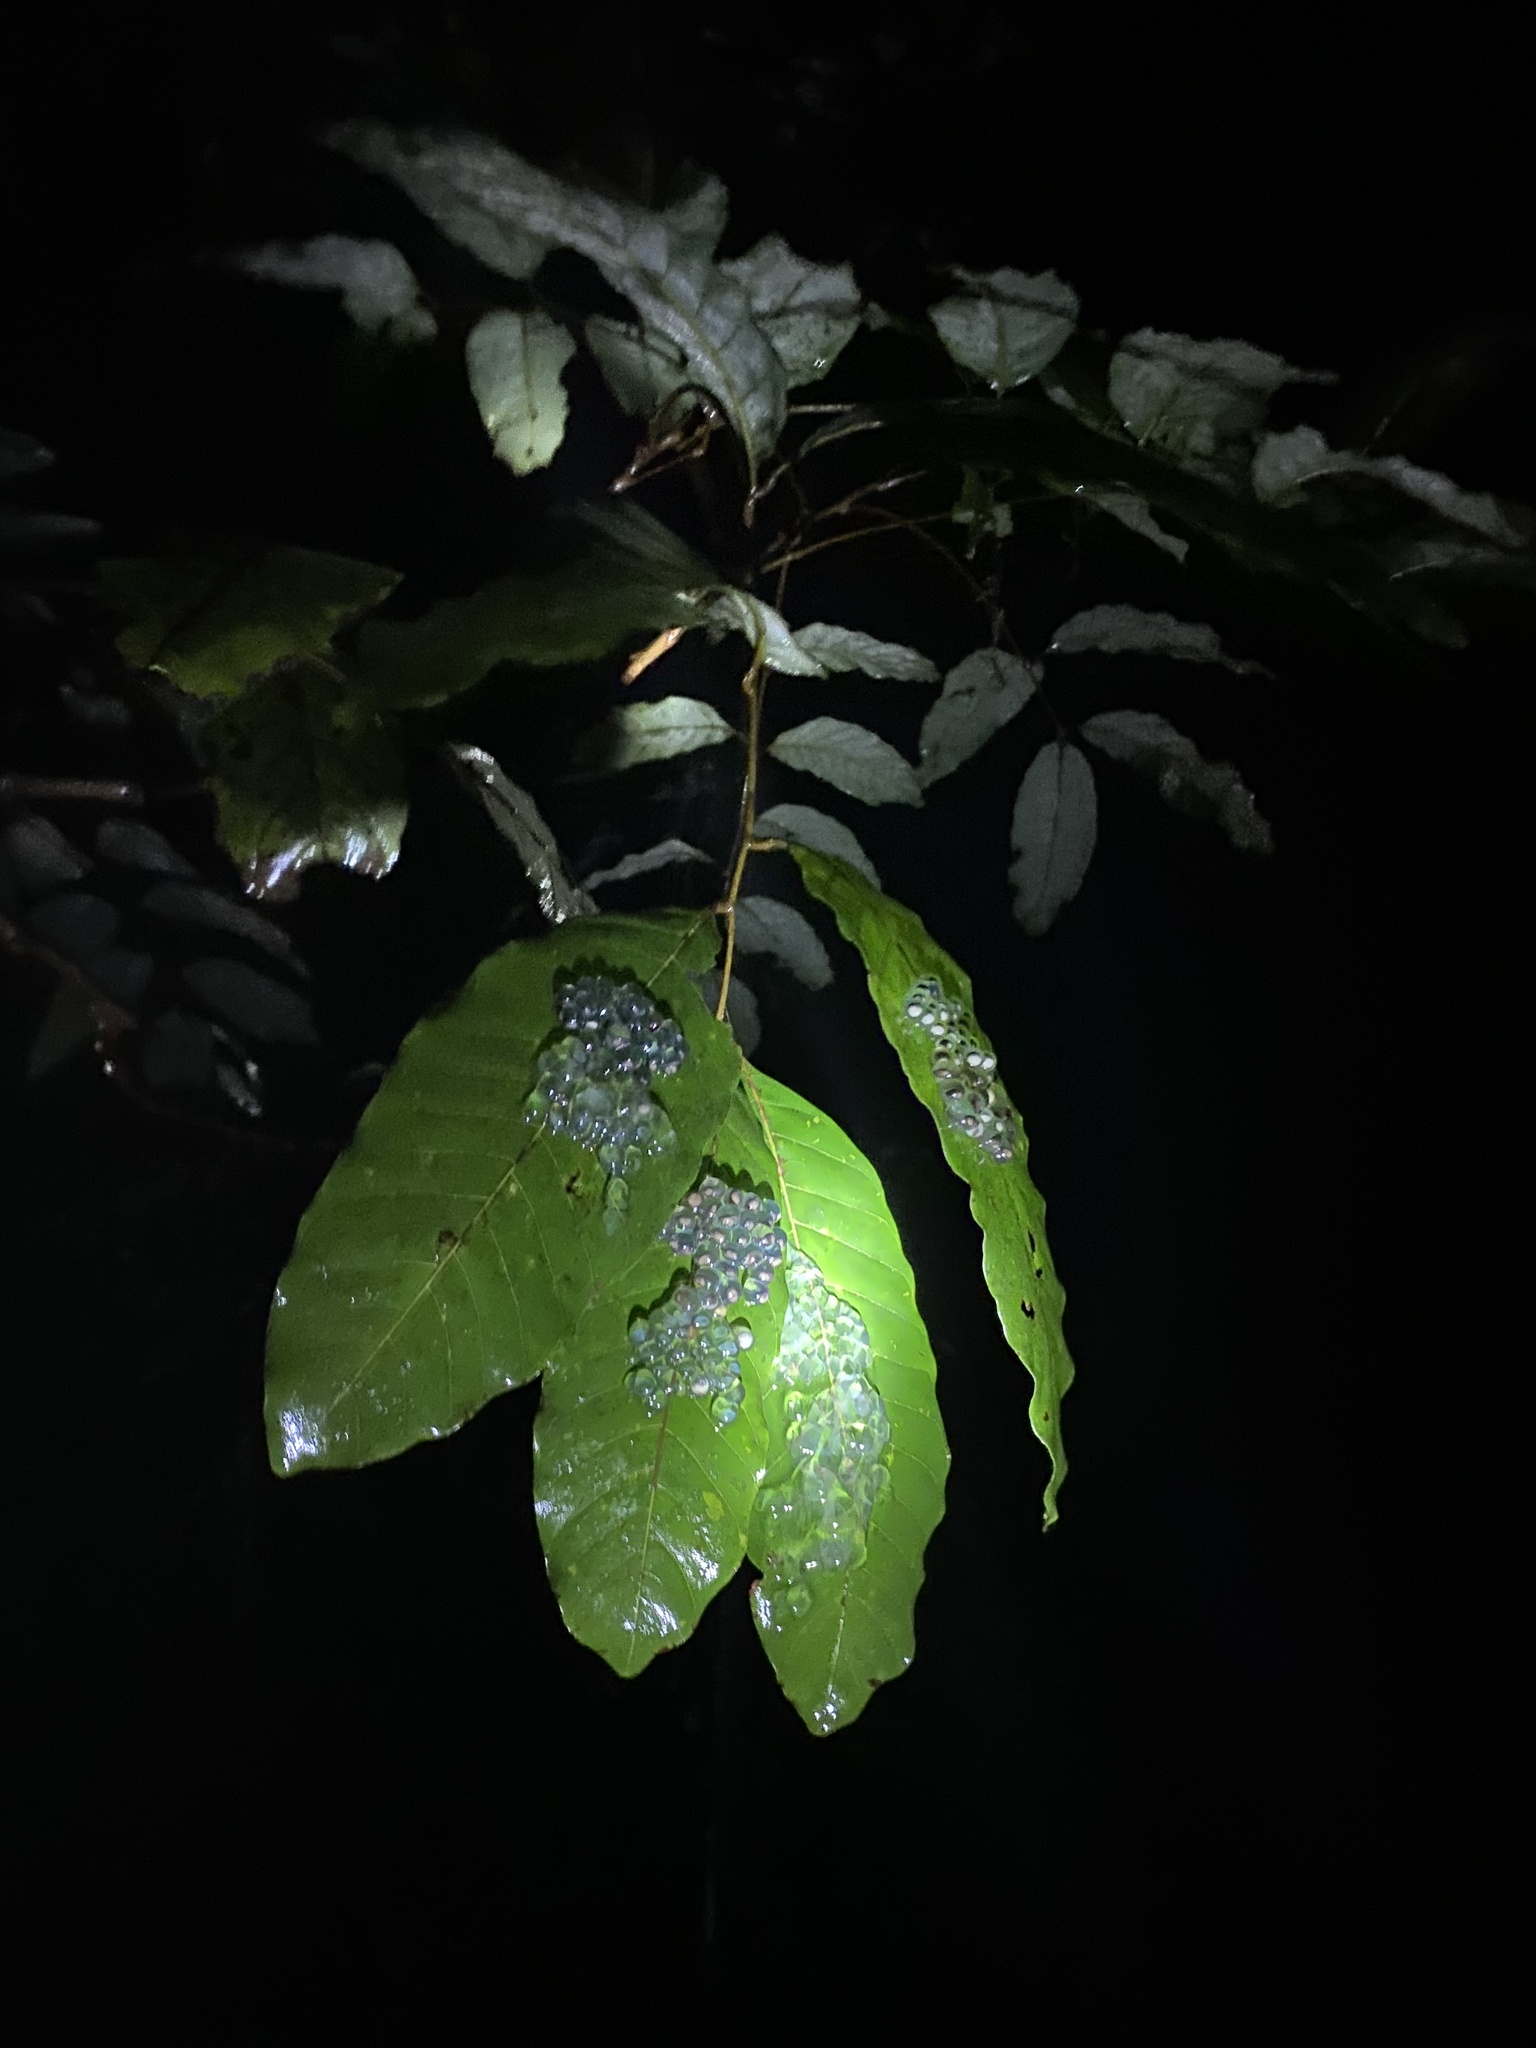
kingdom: Animalia
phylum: Chordata
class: Amphibia
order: Anura
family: Nyctibatrachidae
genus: Nyctibatrachus
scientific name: Nyctibatrachus petraeus
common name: Castle rock night frog
